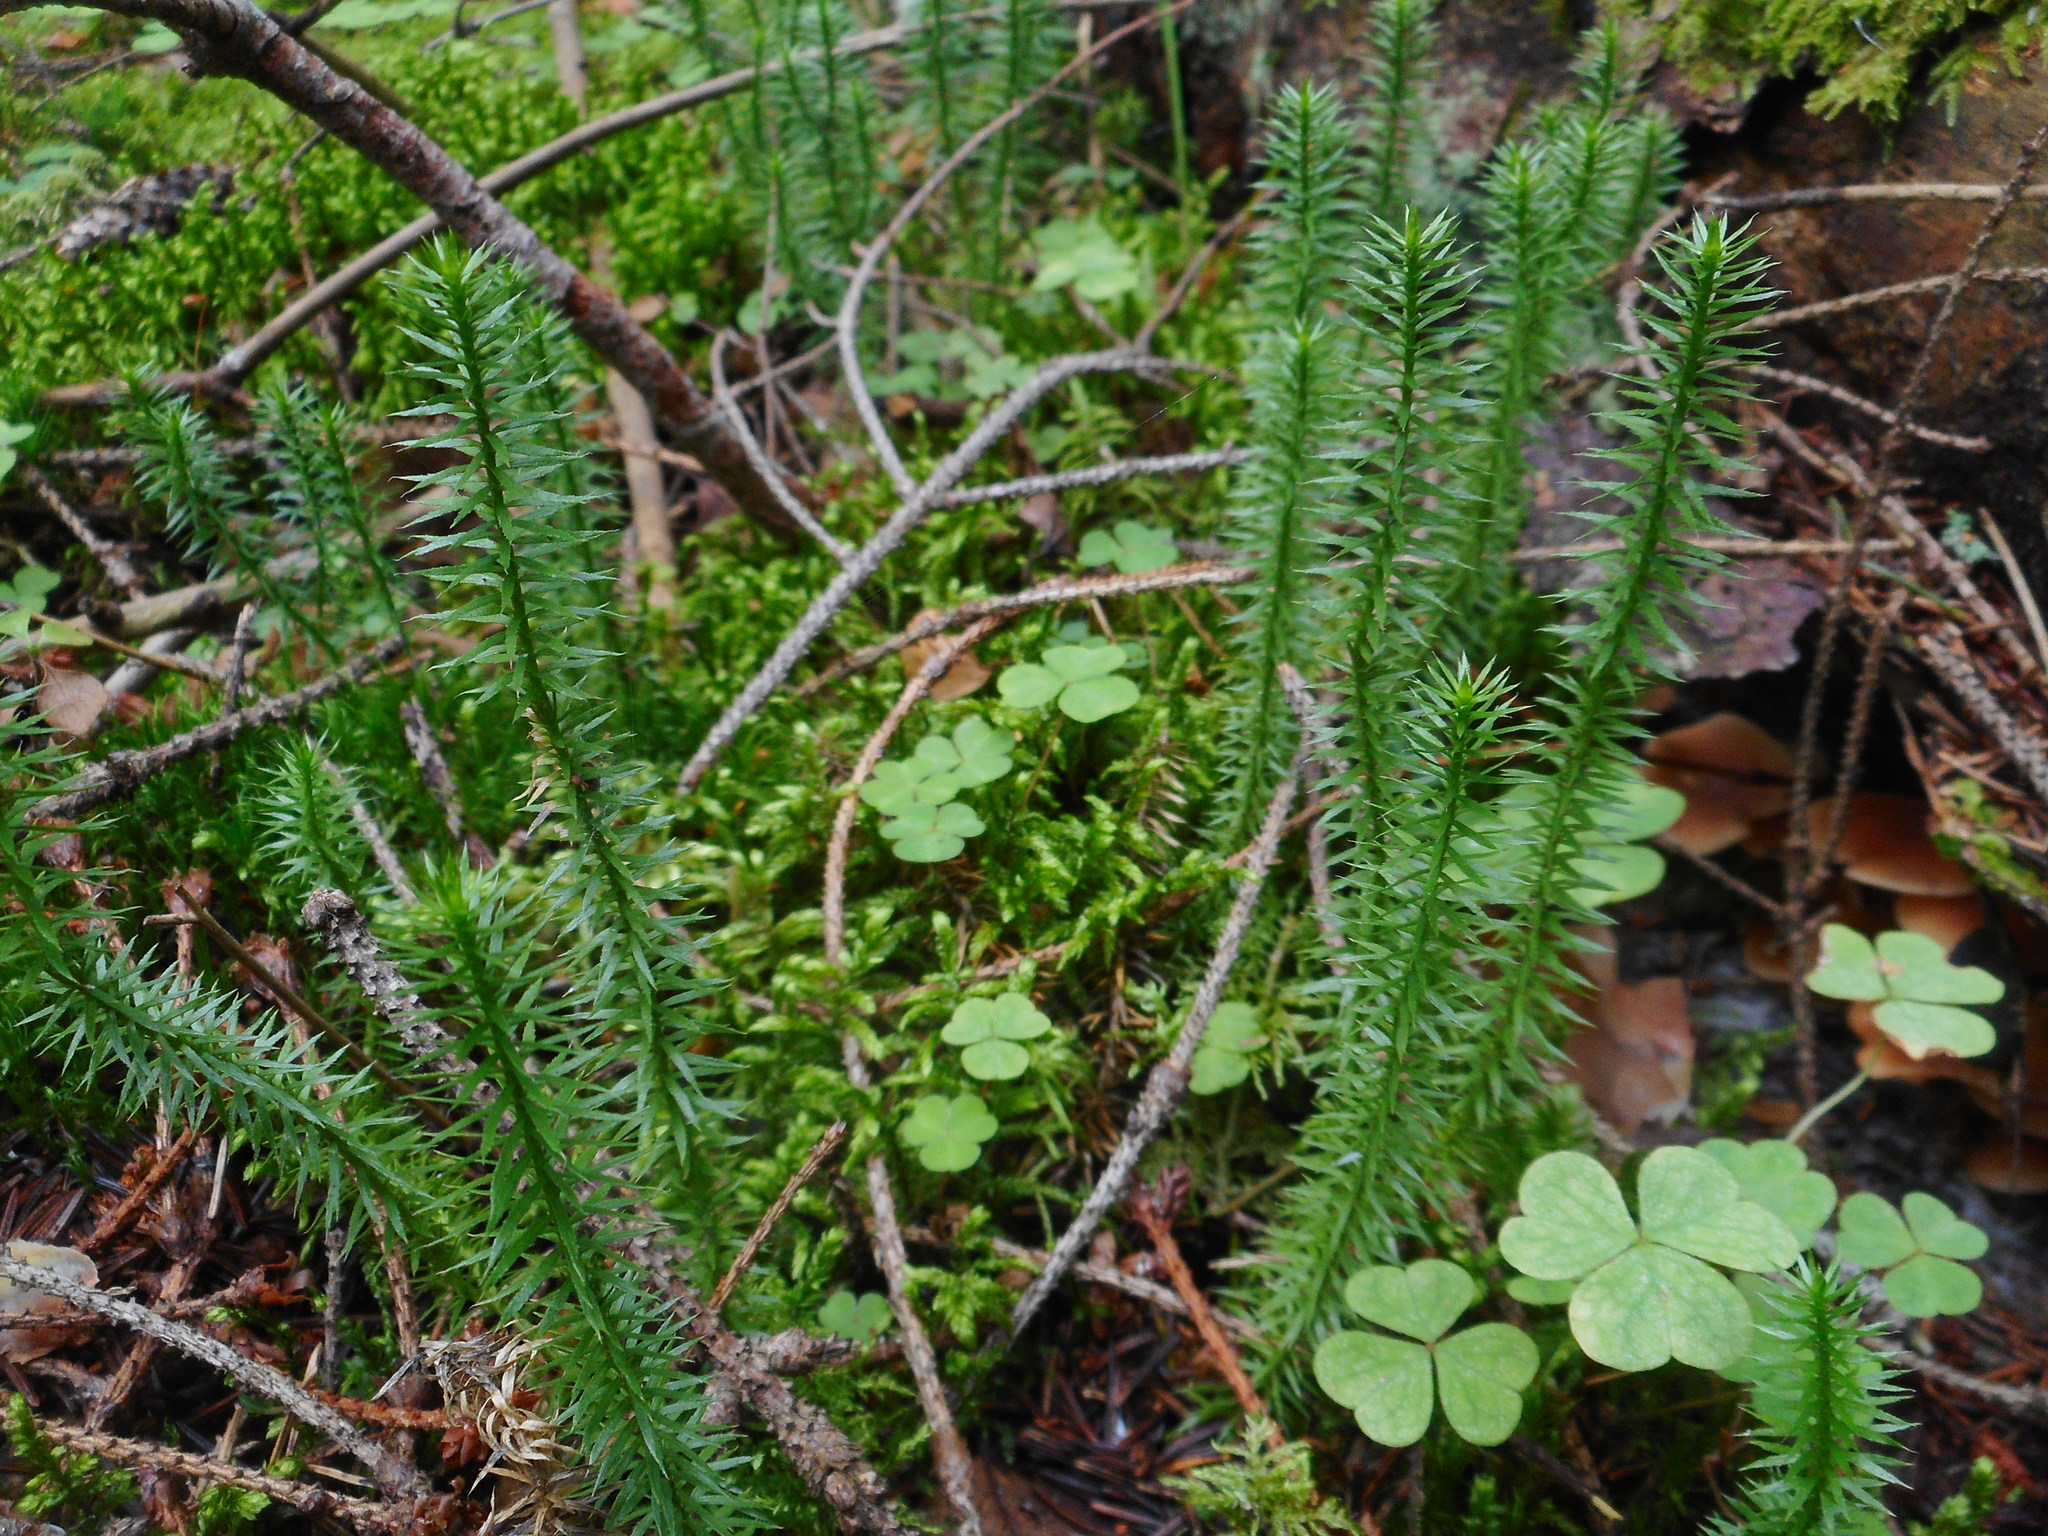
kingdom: Plantae
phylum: Tracheophyta
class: Lycopodiopsida
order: Lycopodiales
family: Lycopodiaceae
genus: Spinulum
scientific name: Spinulum annotinum
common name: Interrupted club-moss
